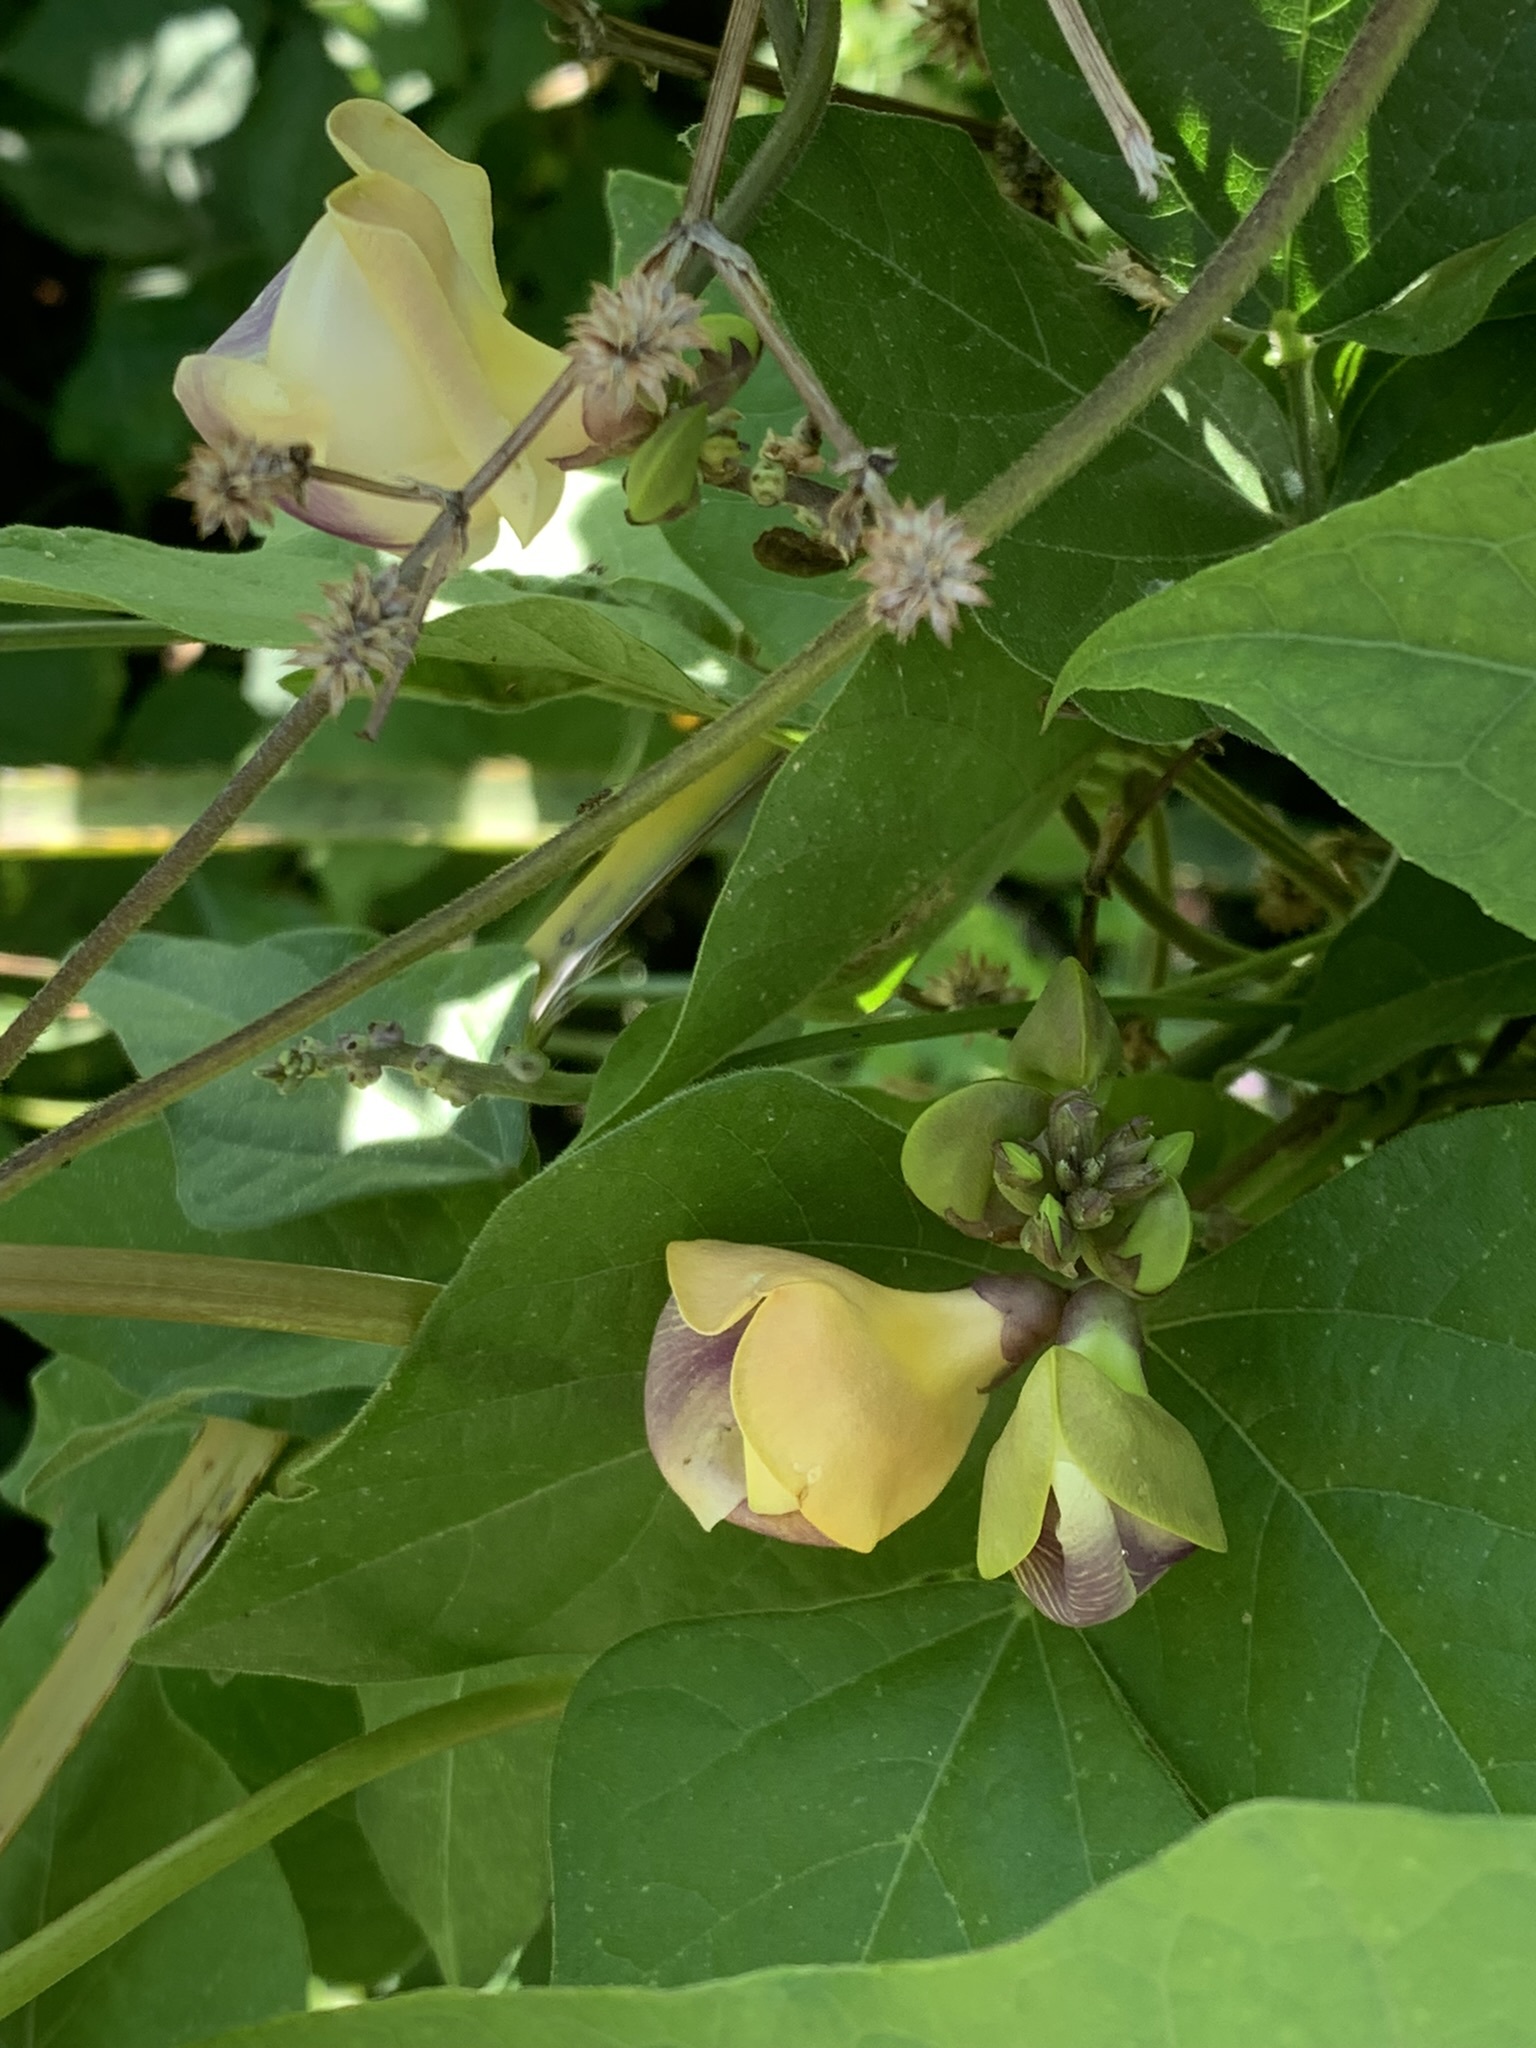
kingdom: Plantae
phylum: Tracheophyta
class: Magnoliopsida
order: Fabales
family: Fabaceae
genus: Leptospron
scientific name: Leptospron adenanthum
